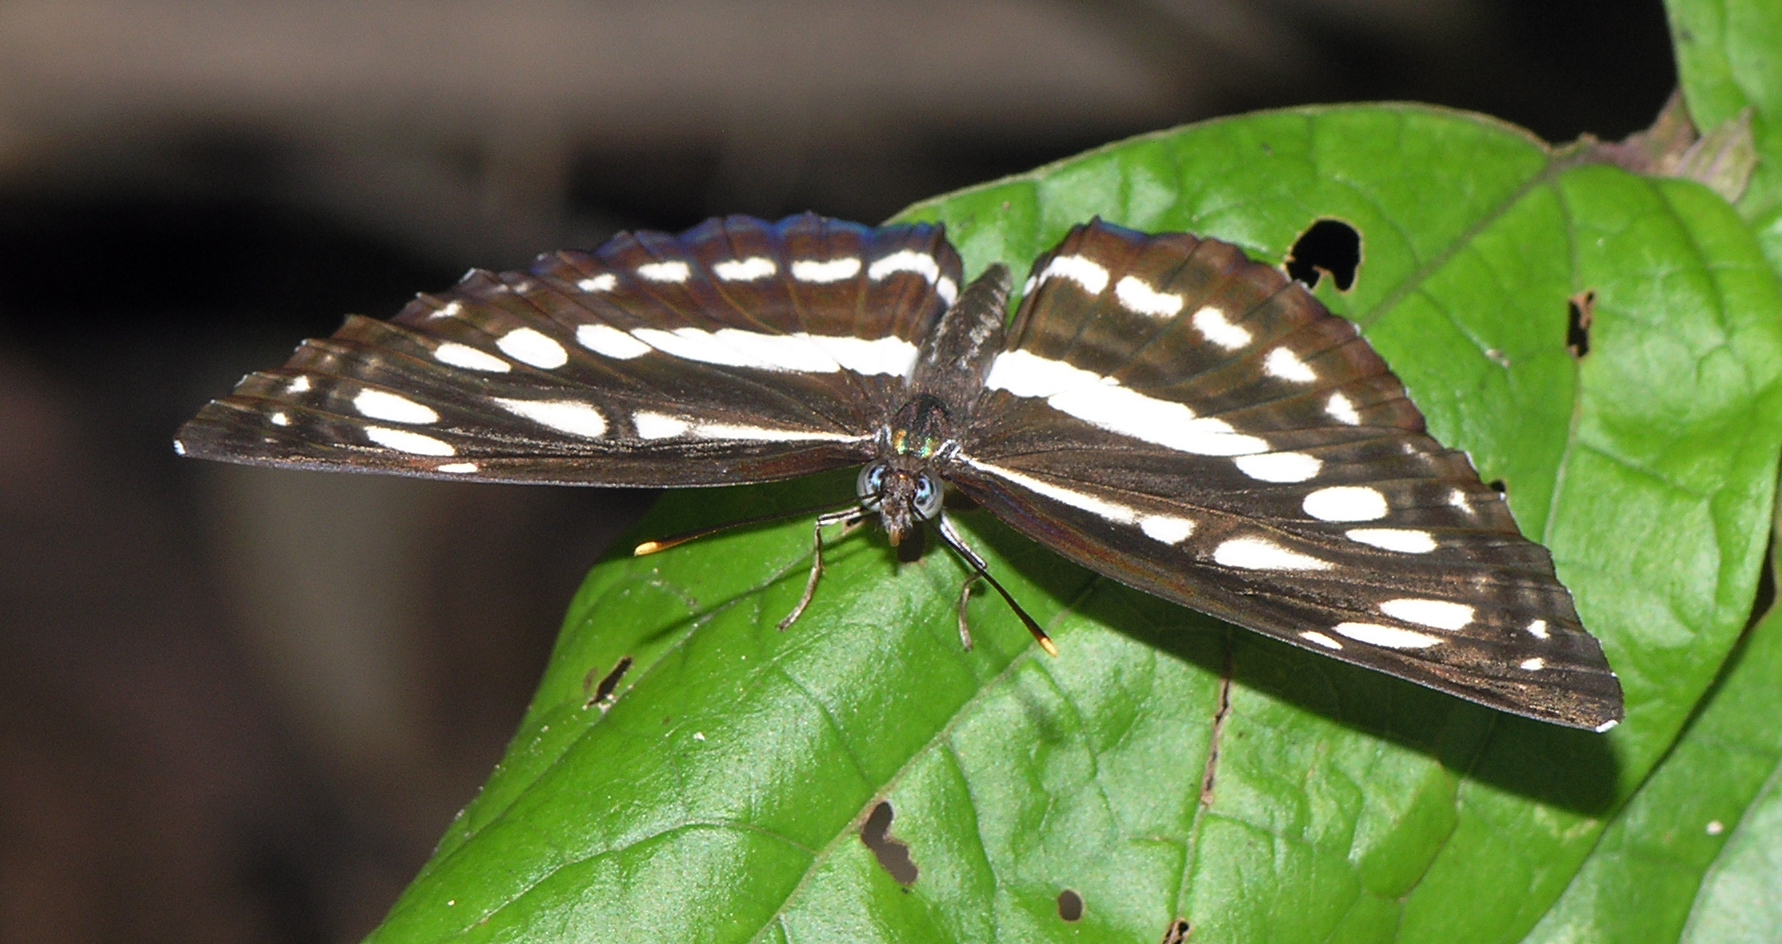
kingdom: Animalia
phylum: Arthropoda
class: Insecta
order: Lepidoptera
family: Nymphalidae
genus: Neptis
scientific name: Neptis hylas
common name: Common sailer
